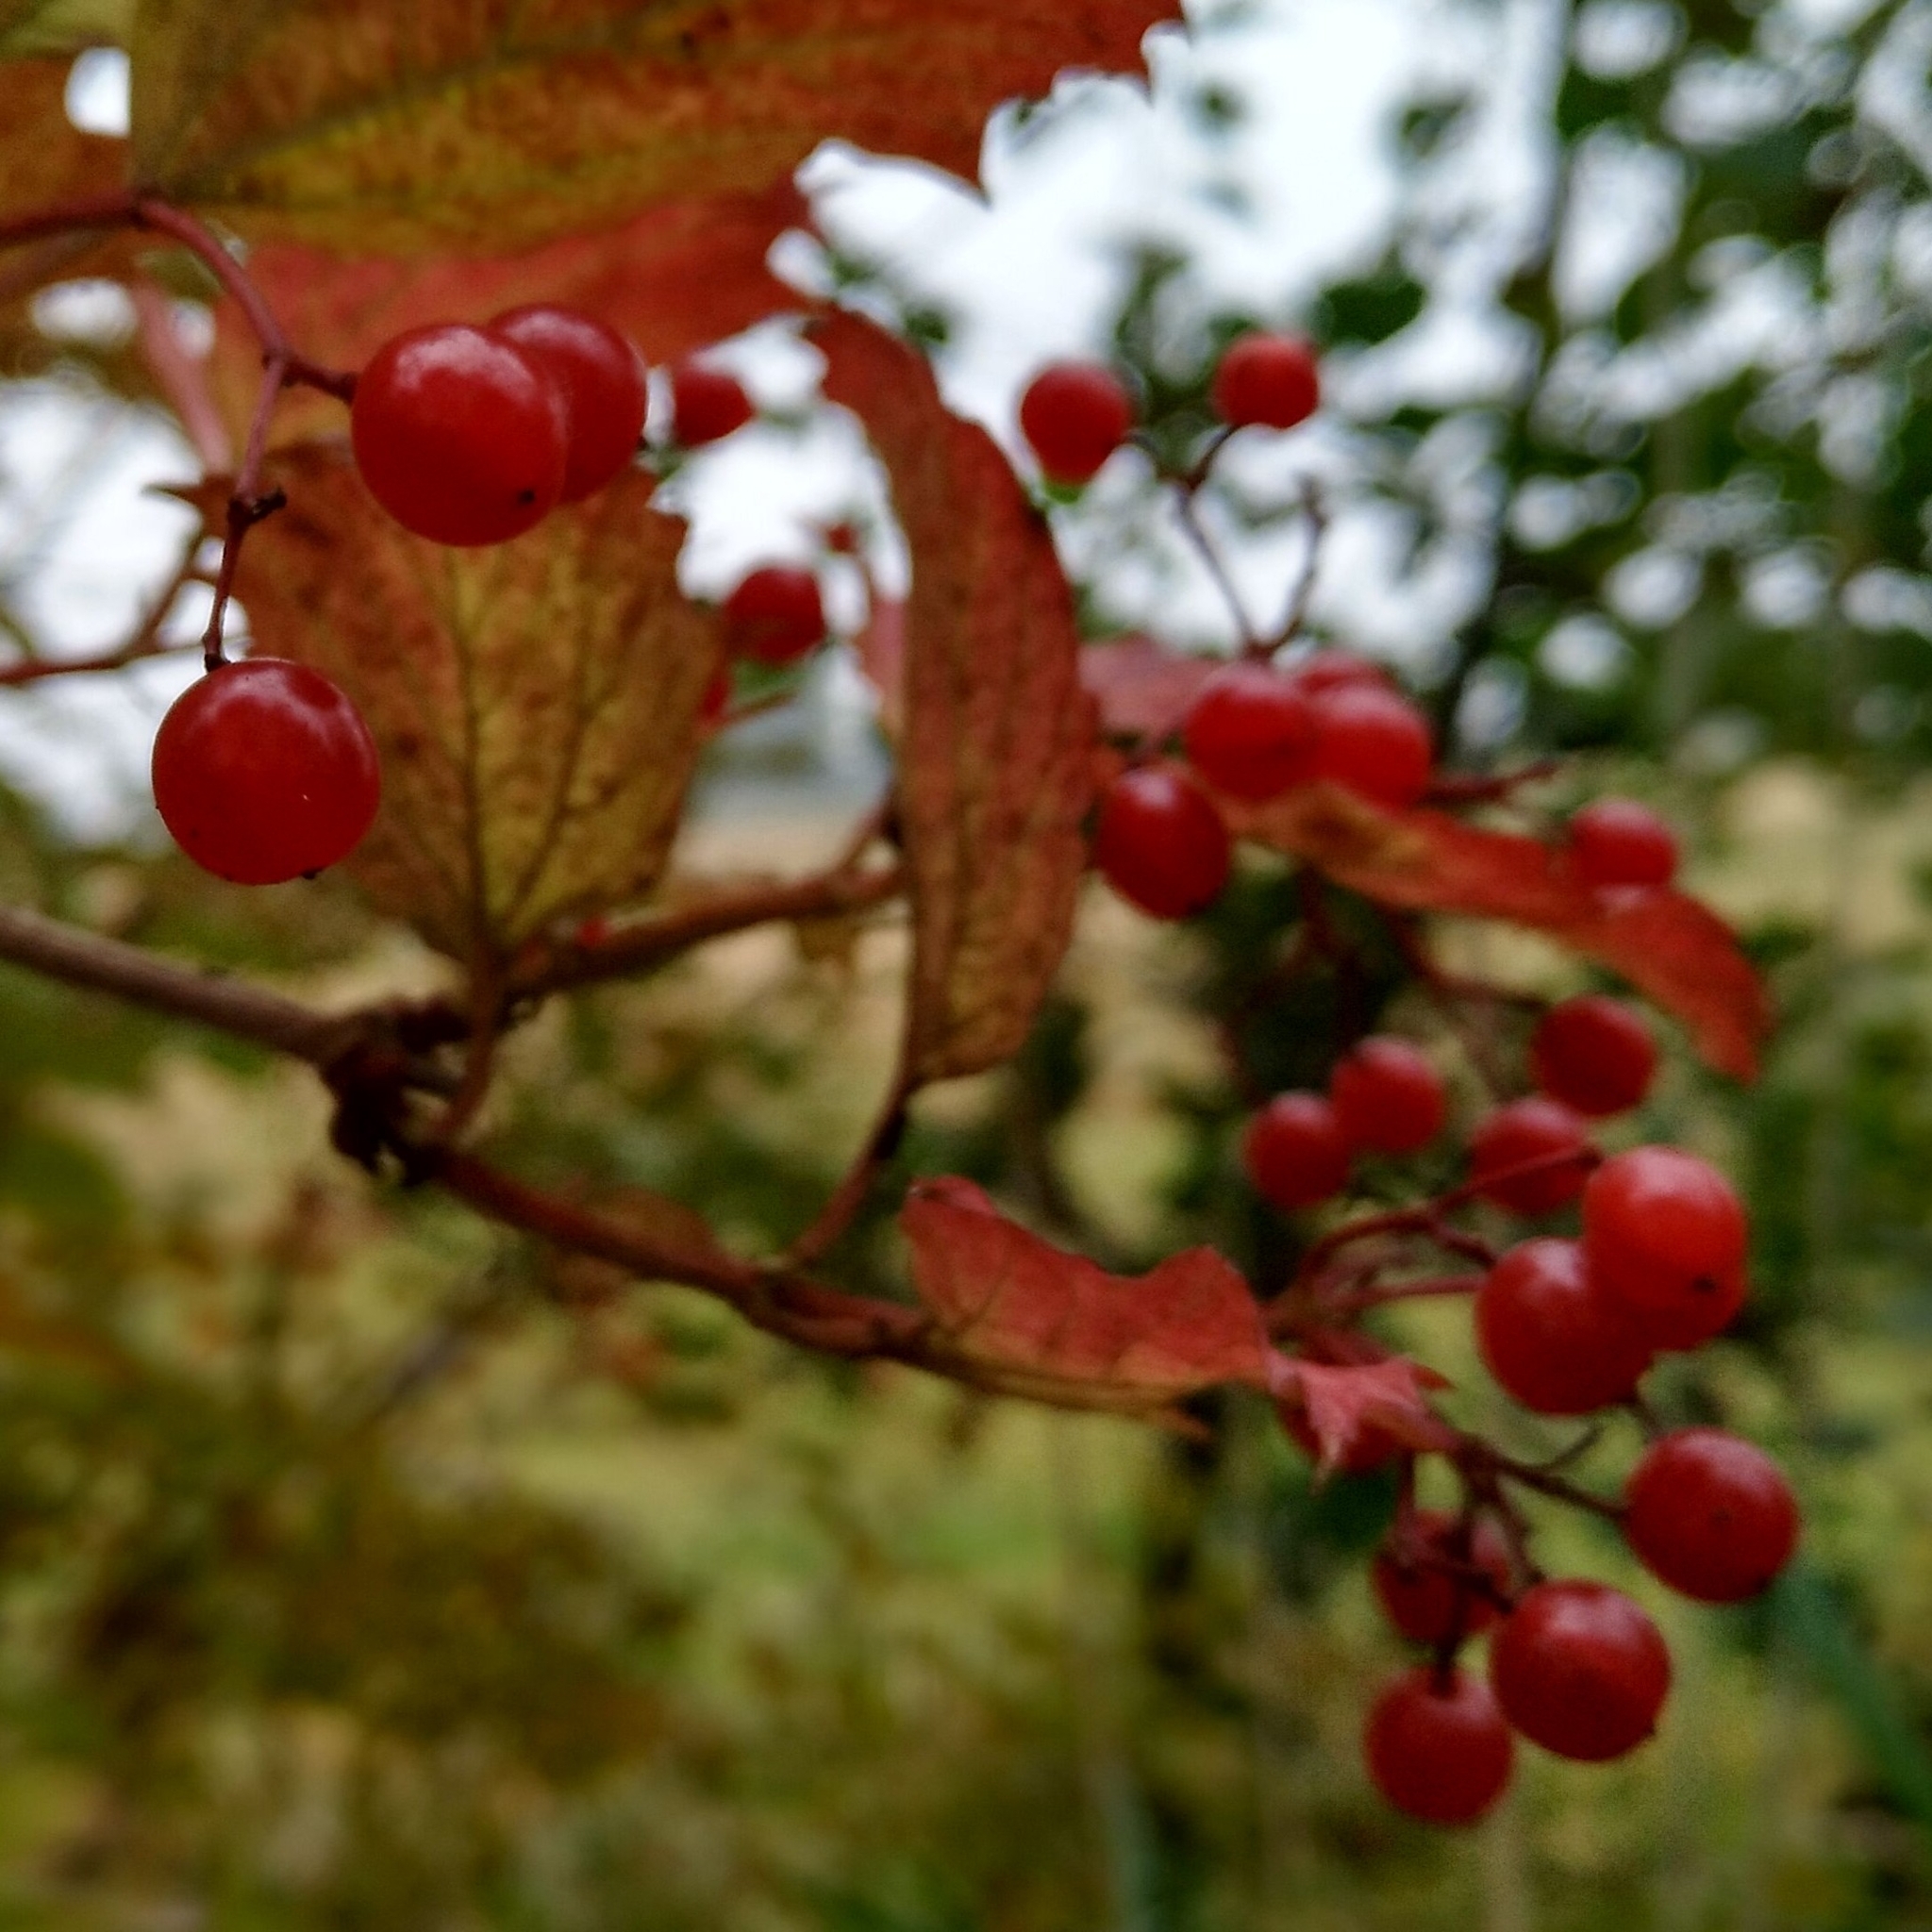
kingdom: Plantae
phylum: Tracheophyta
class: Magnoliopsida
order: Dipsacales
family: Viburnaceae
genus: Viburnum
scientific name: Viburnum opulus
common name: Guelder-rose
